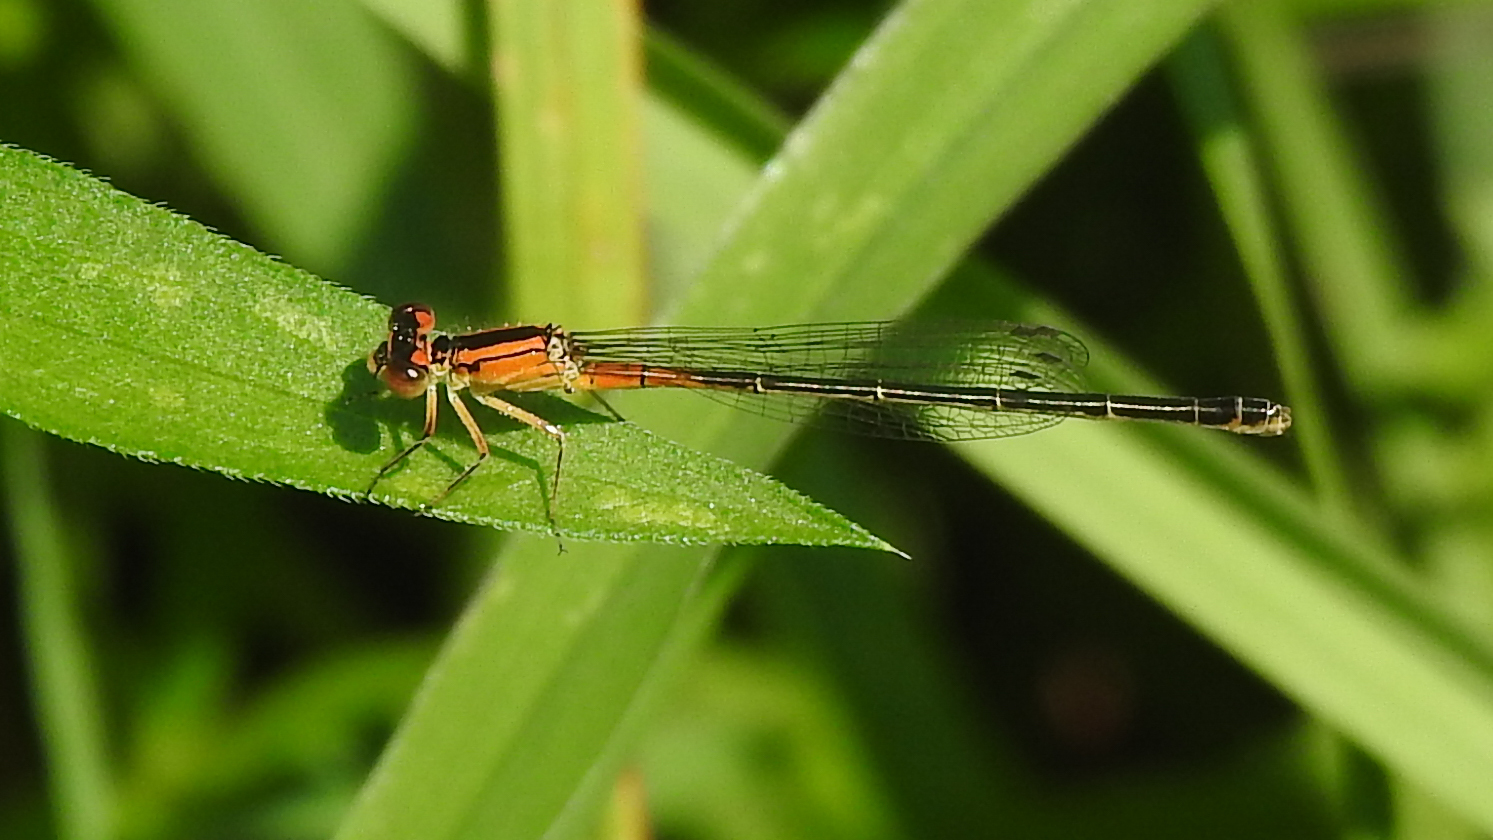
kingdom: Animalia
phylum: Arthropoda
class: Insecta
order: Odonata
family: Coenagrionidae
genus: Ischnura
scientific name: Ischnura verticalis
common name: Eastern forktail
